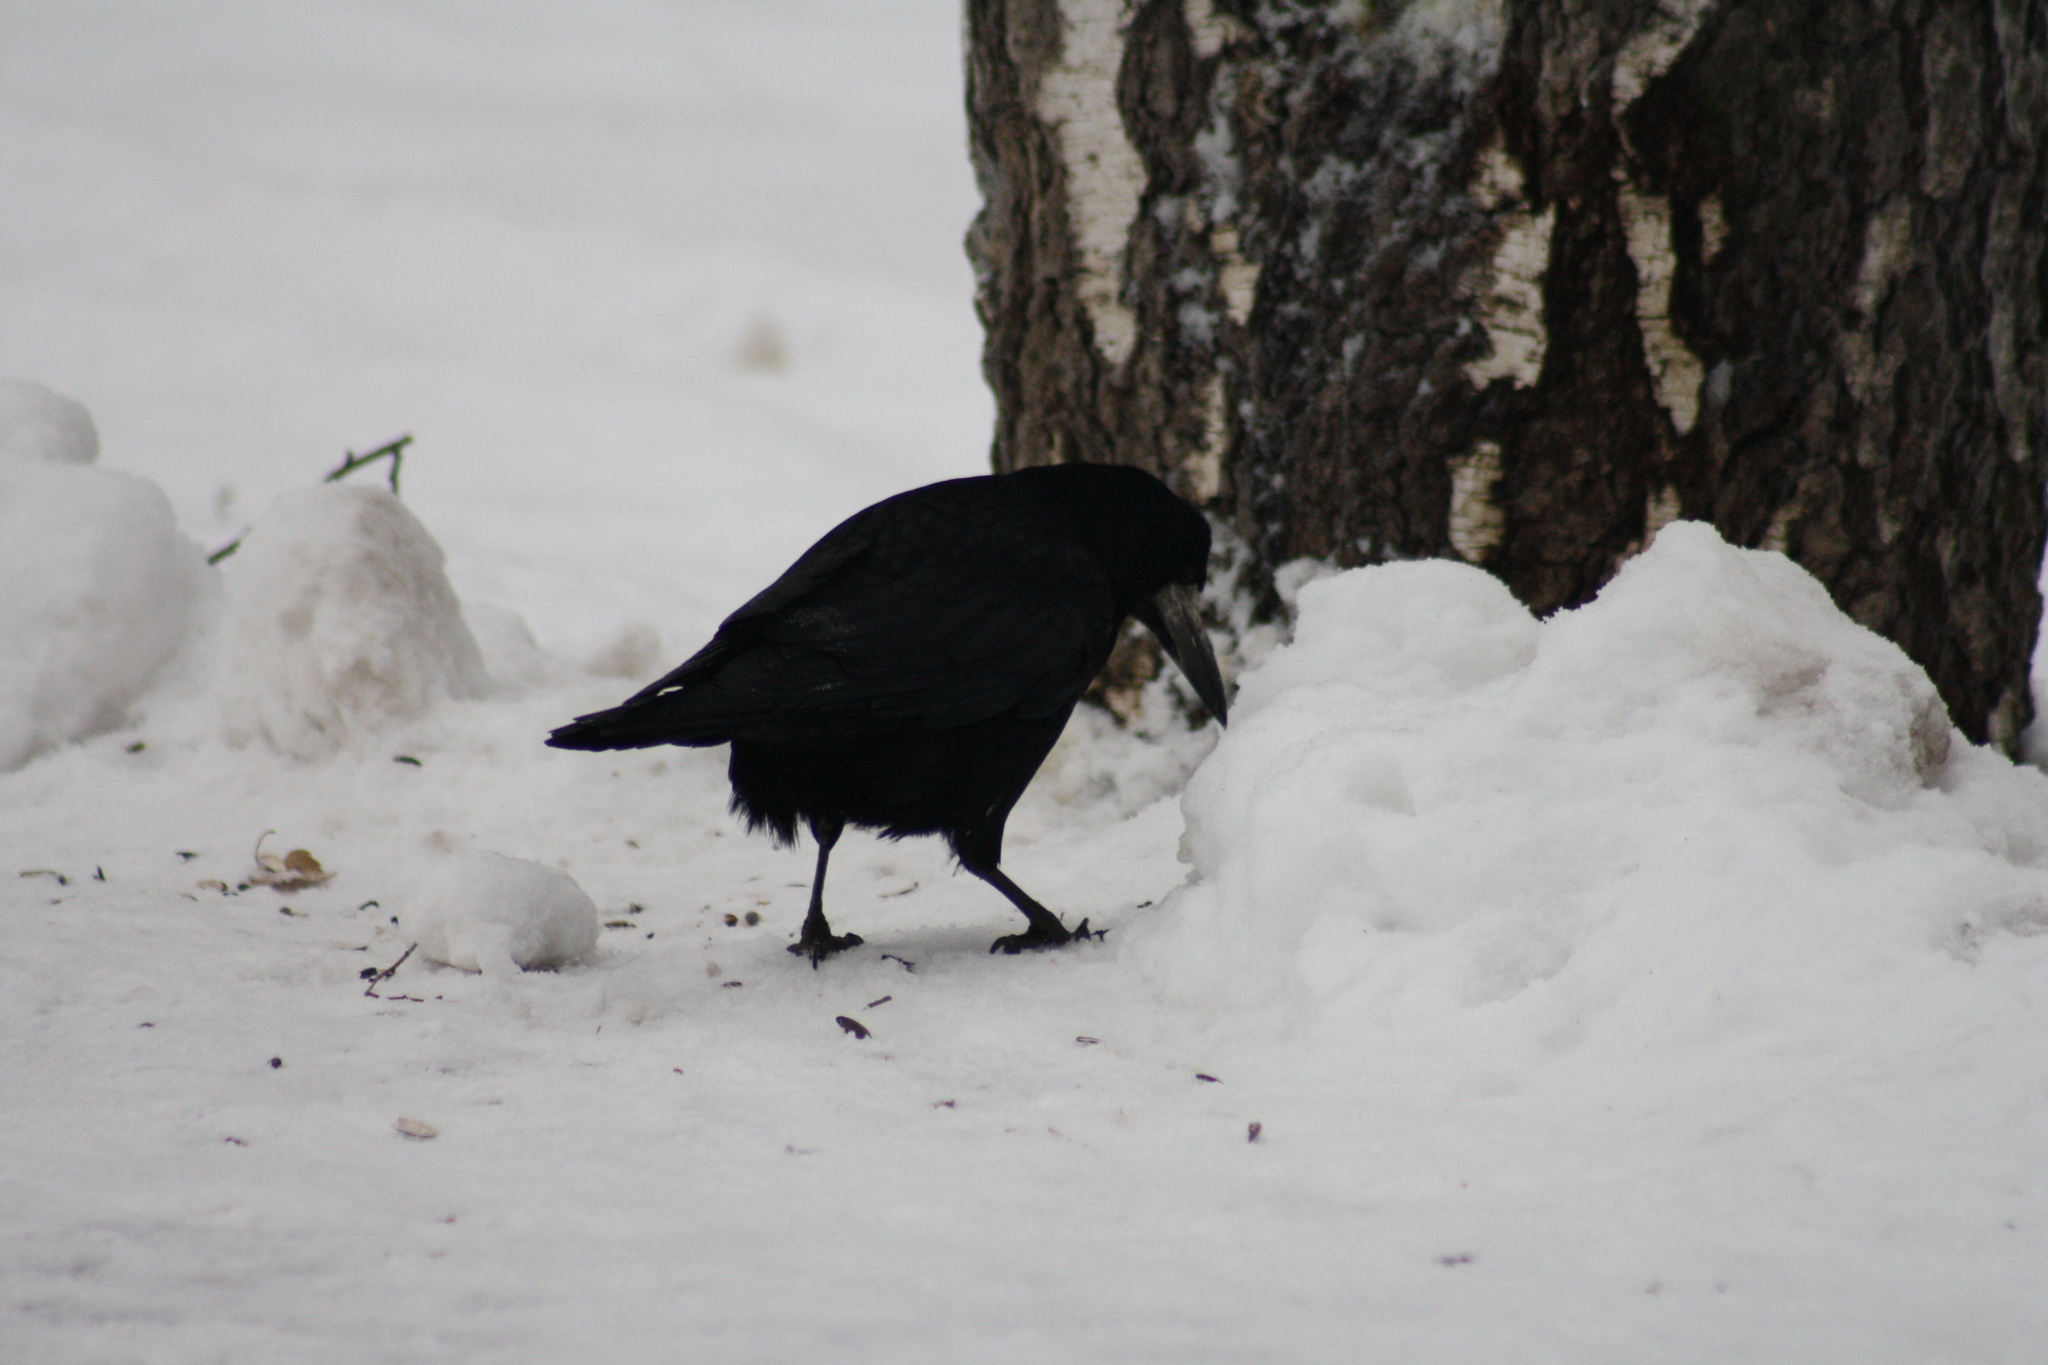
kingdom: Animalia
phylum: Chordata
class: Aves
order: Passeriformes
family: Corvidae
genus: Corvus
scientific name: Corvus frugilegus
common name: Rook
